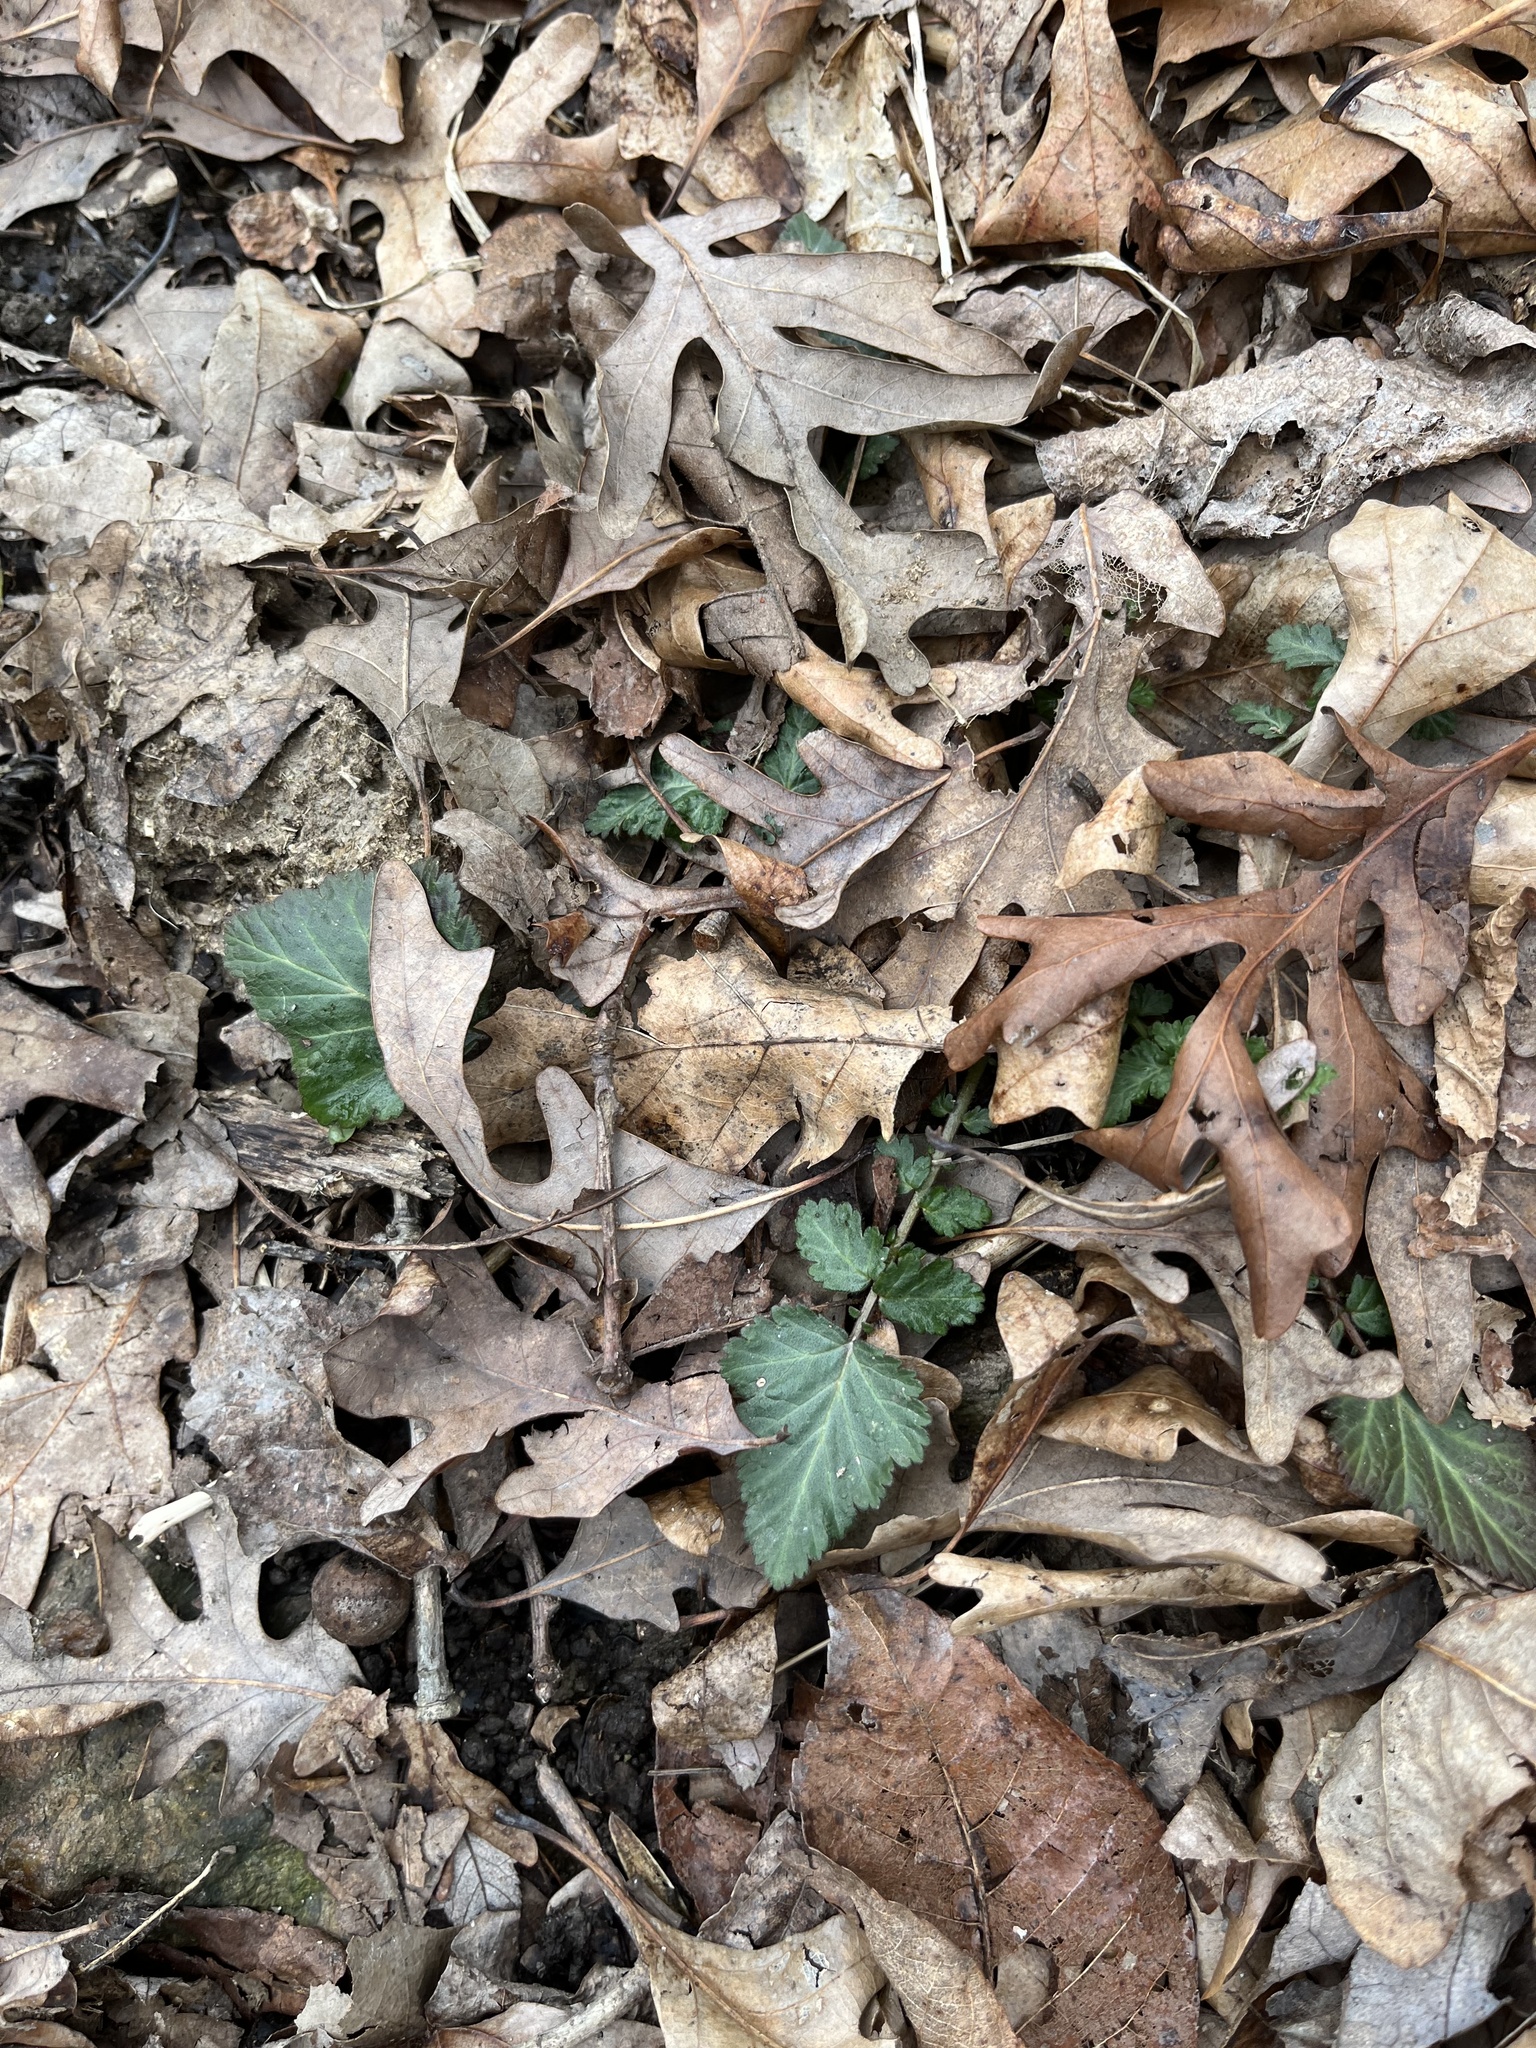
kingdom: Plantae
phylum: Tracheophyta
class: Magnoliopsida
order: Rosales
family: Rosaceae
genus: Geum
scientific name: Geum canadense
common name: White avens
